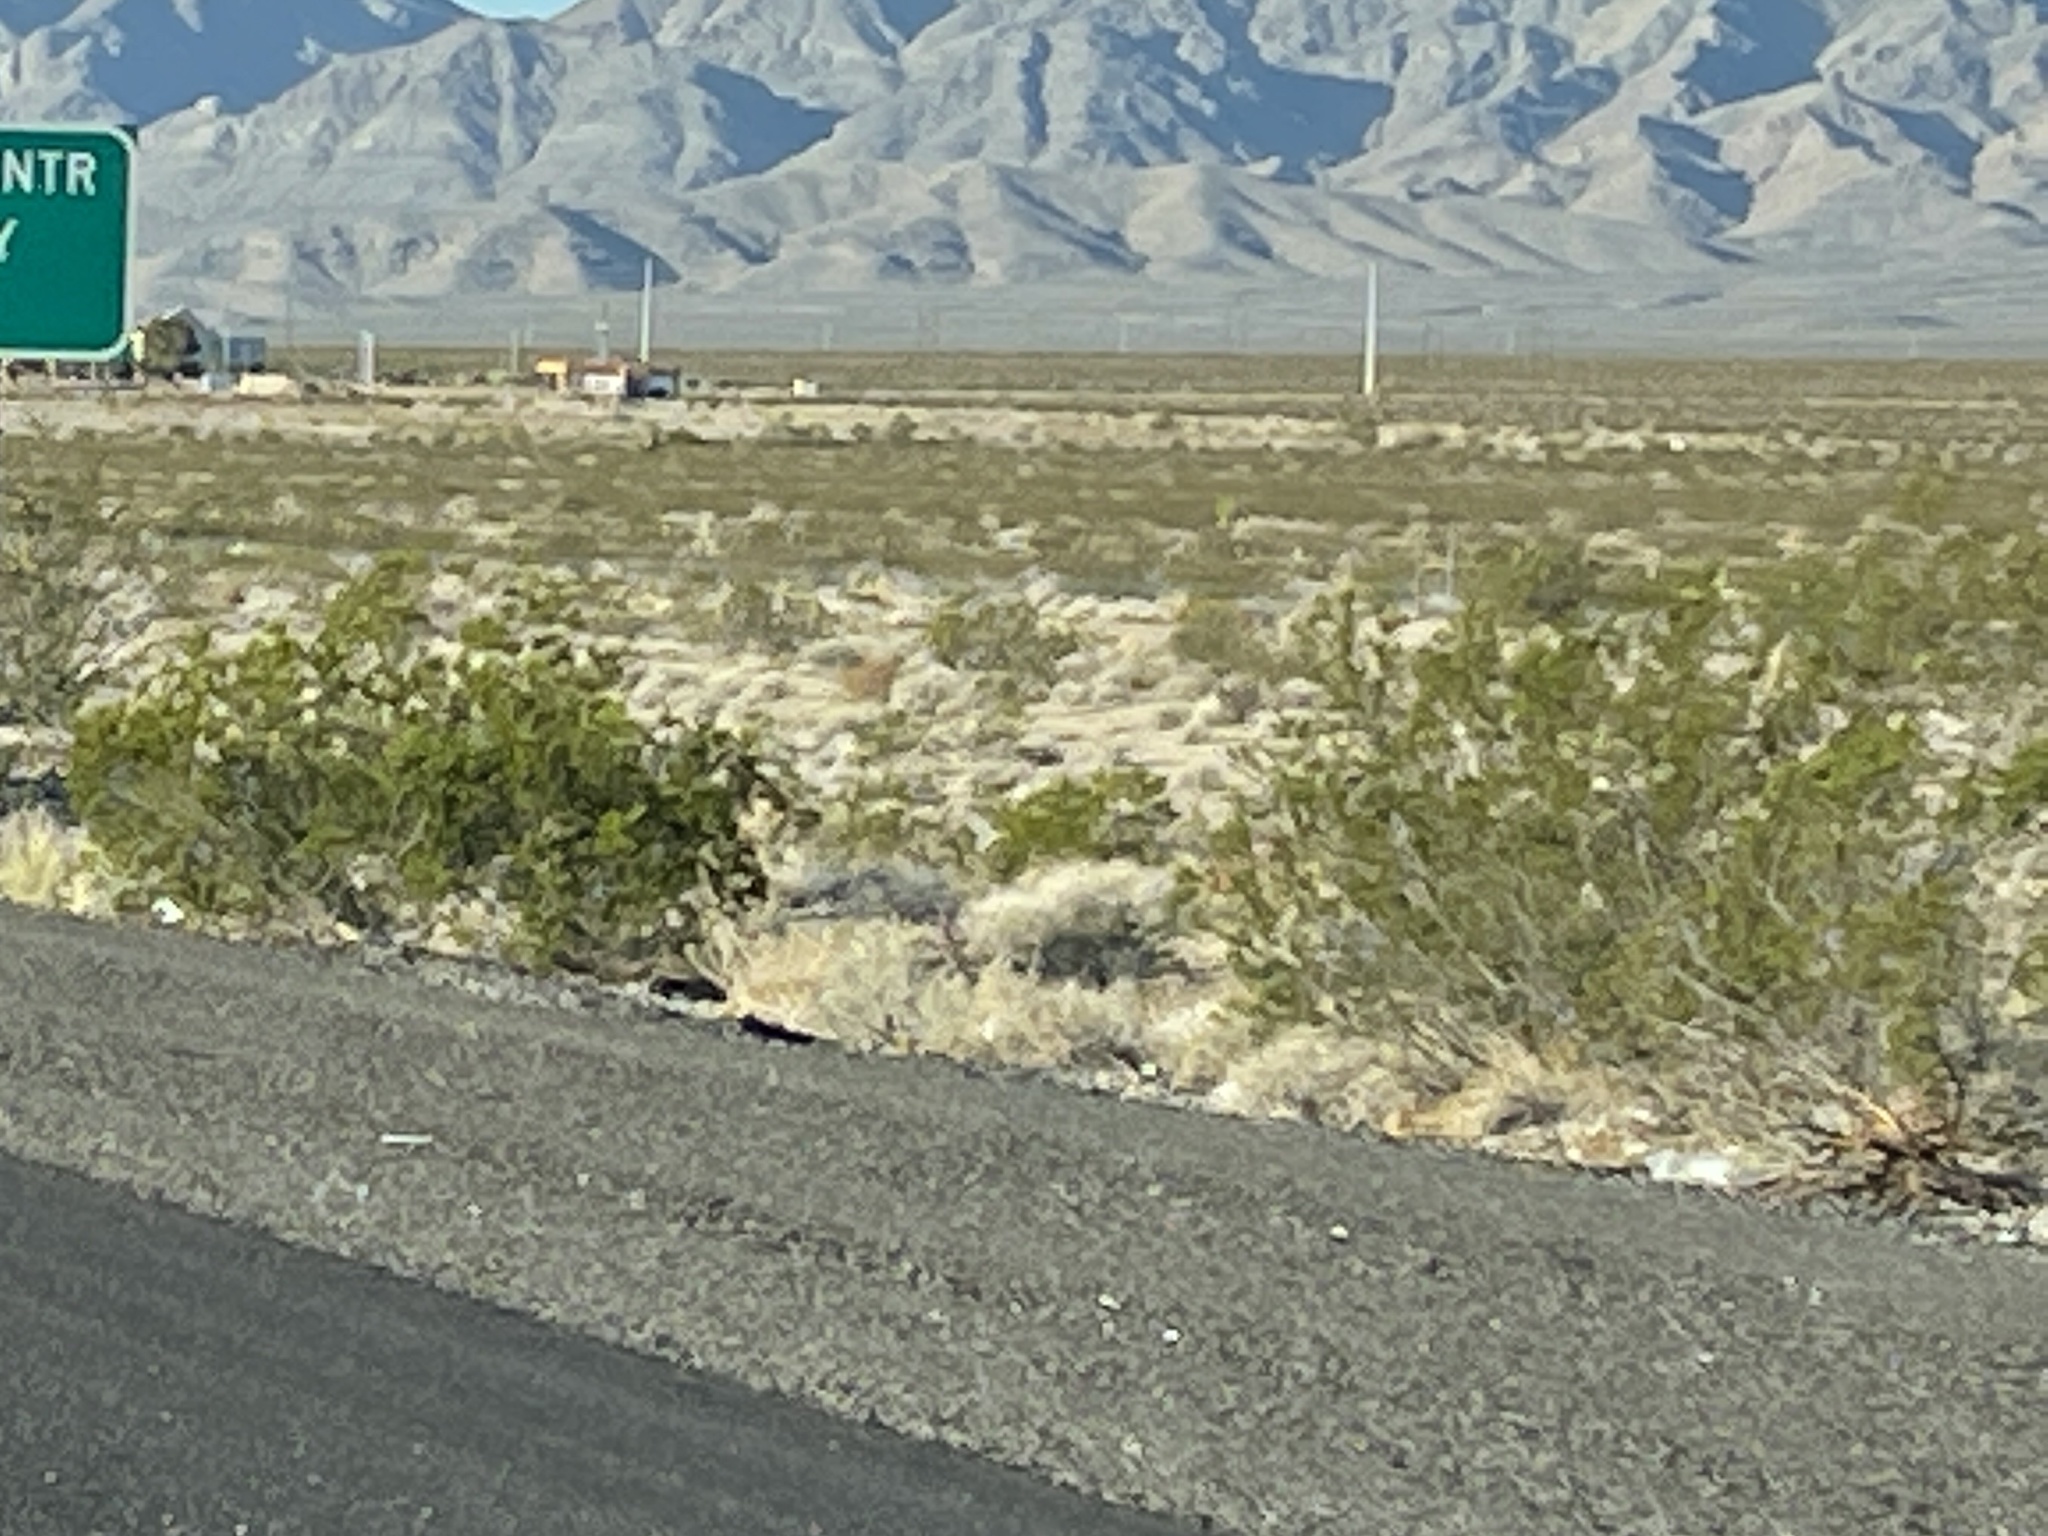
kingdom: Plantae
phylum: Tracheophyta
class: Magnoliopsida
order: Zygophyllales
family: Zygophyllaceae
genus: Larrea
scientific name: Larrea tridentata
